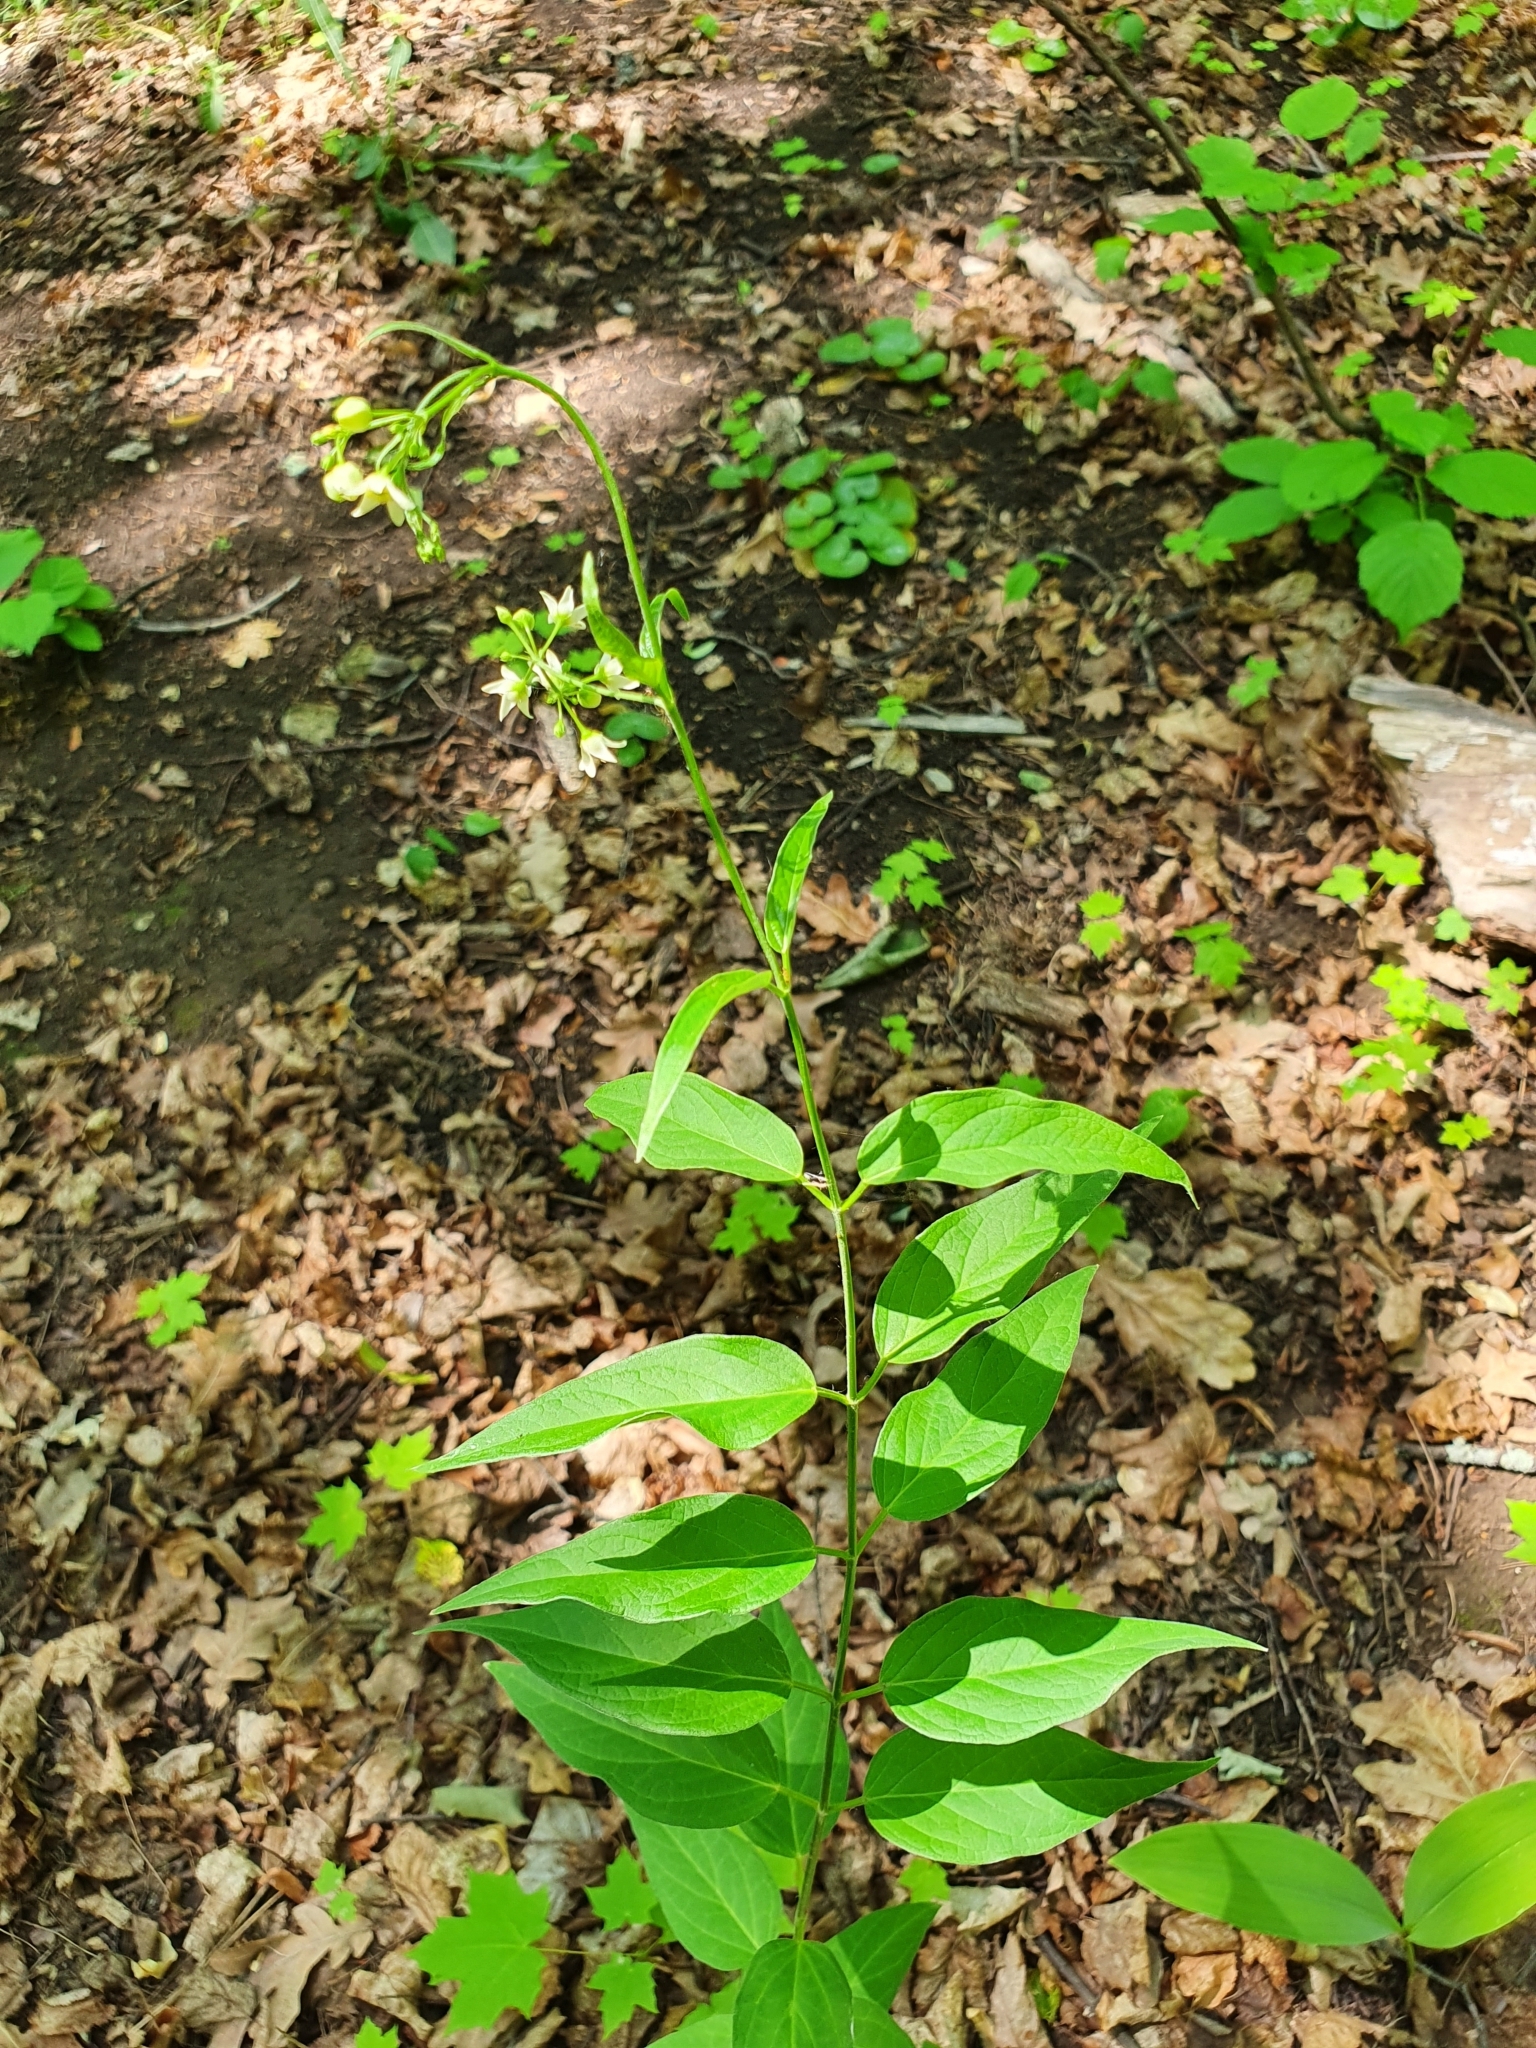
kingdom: Plantae
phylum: Tracheophyta
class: Magnoliopsida
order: Gentianales
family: Apocynaceae
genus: Vincetoxicum
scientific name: Vincetoxicum hirundinaria
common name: White swallowwort
